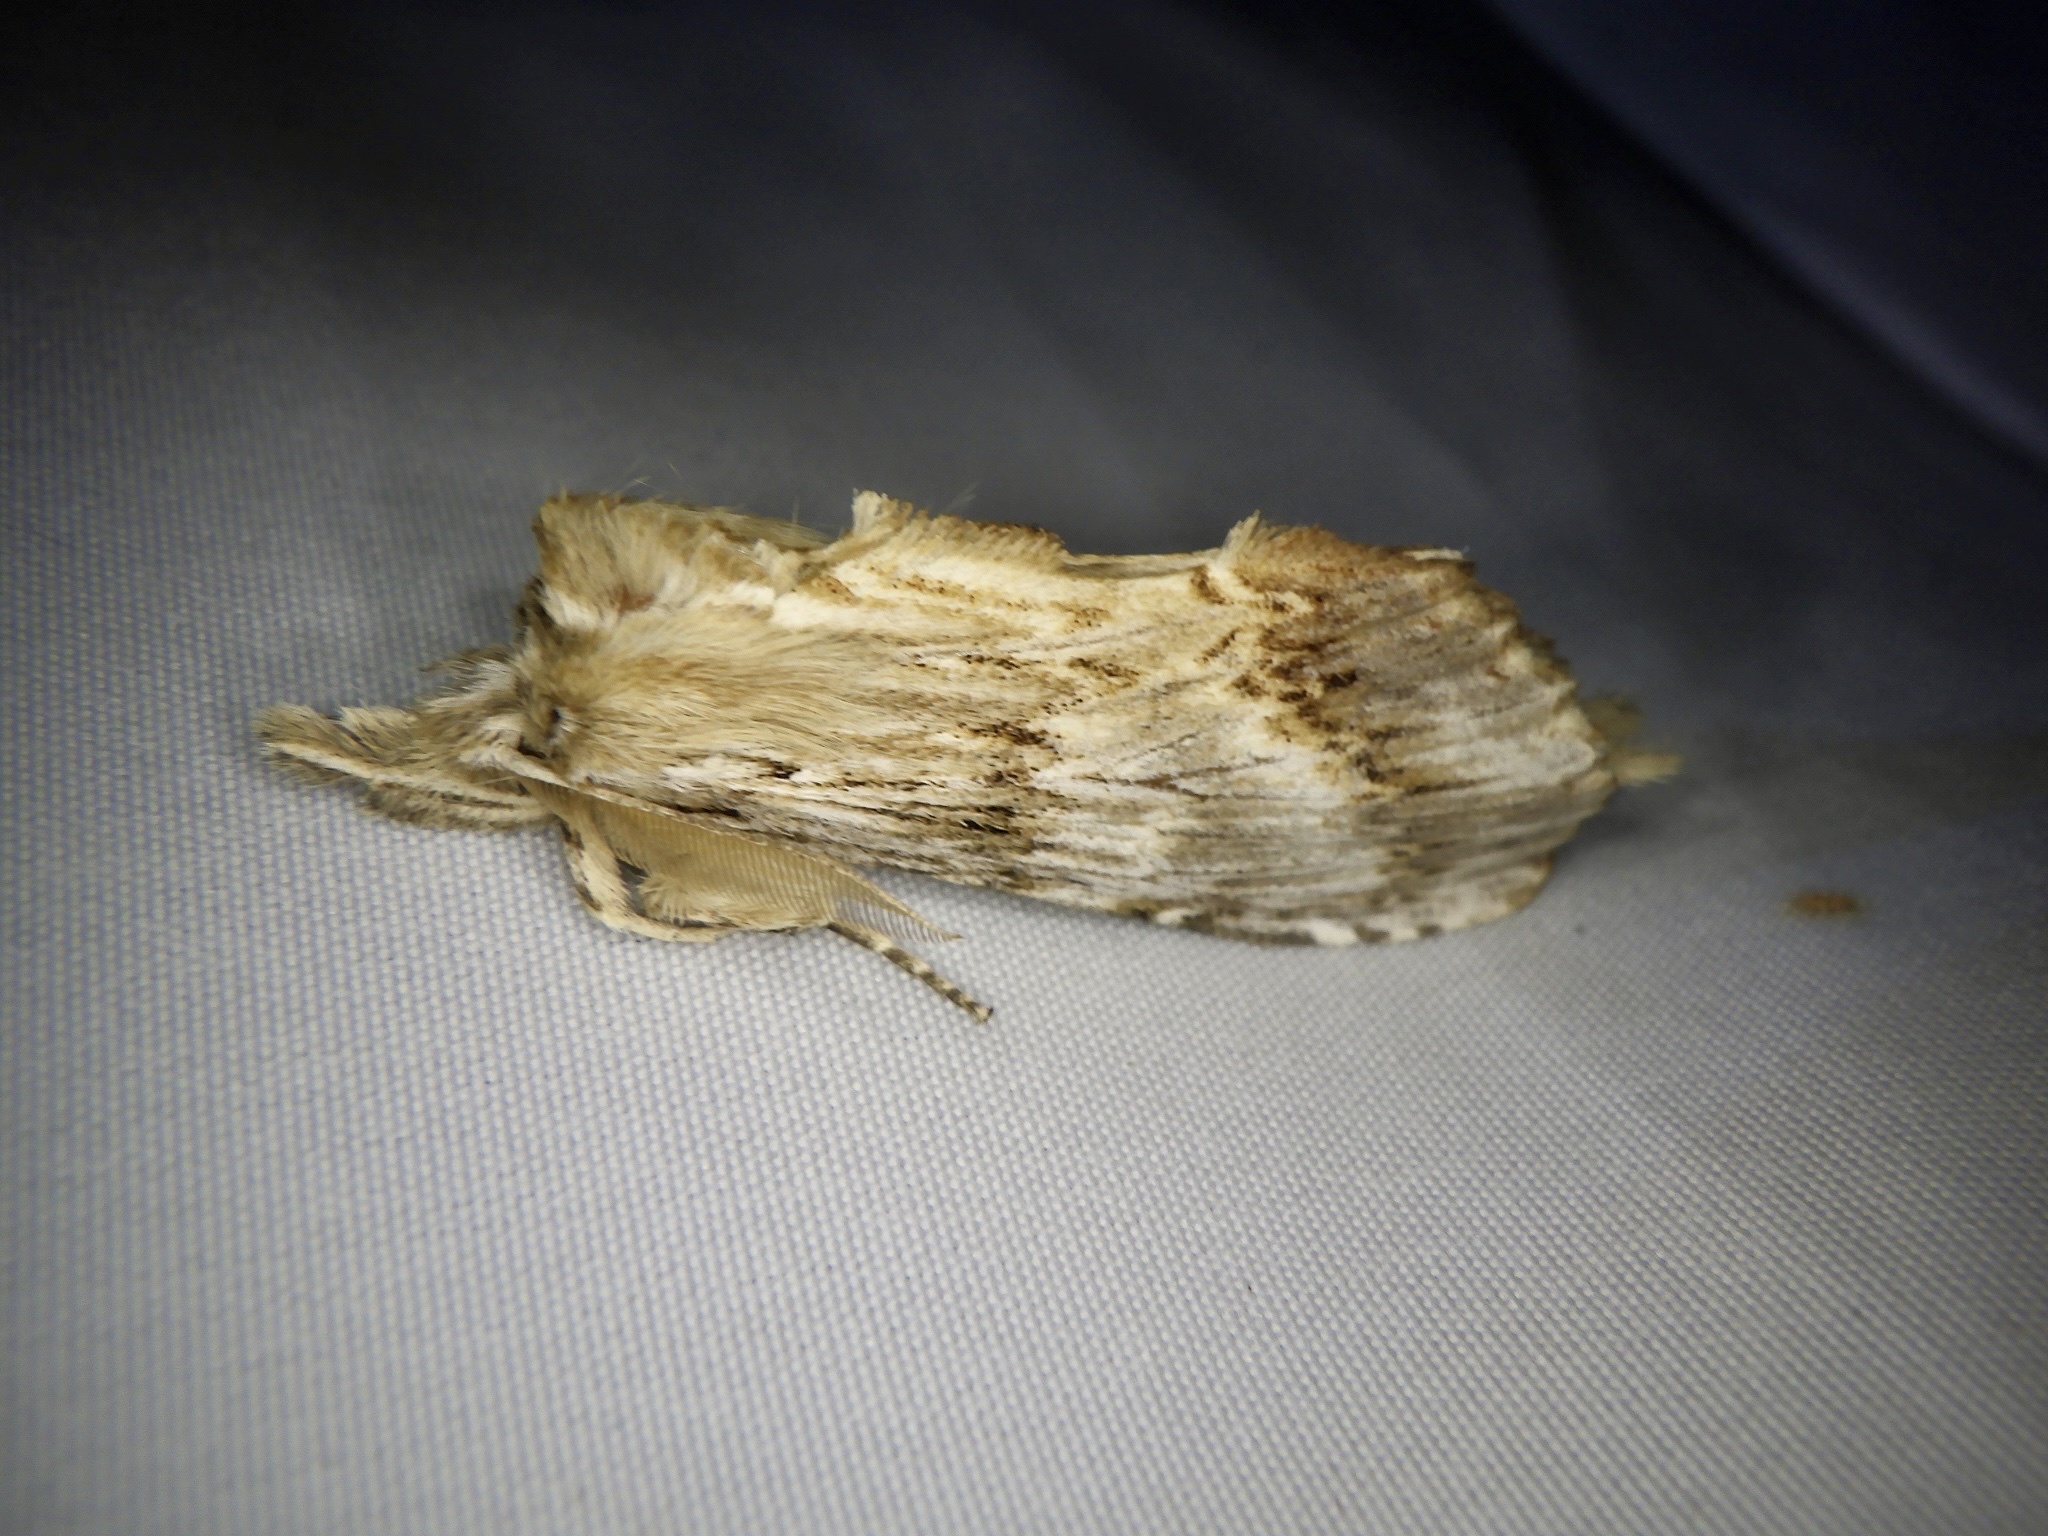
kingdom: Animalia
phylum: Arthropoda
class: Insecta
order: Lepidoptera
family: Notodontidae
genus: Pterostoma
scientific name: Pterostoma gigantina
